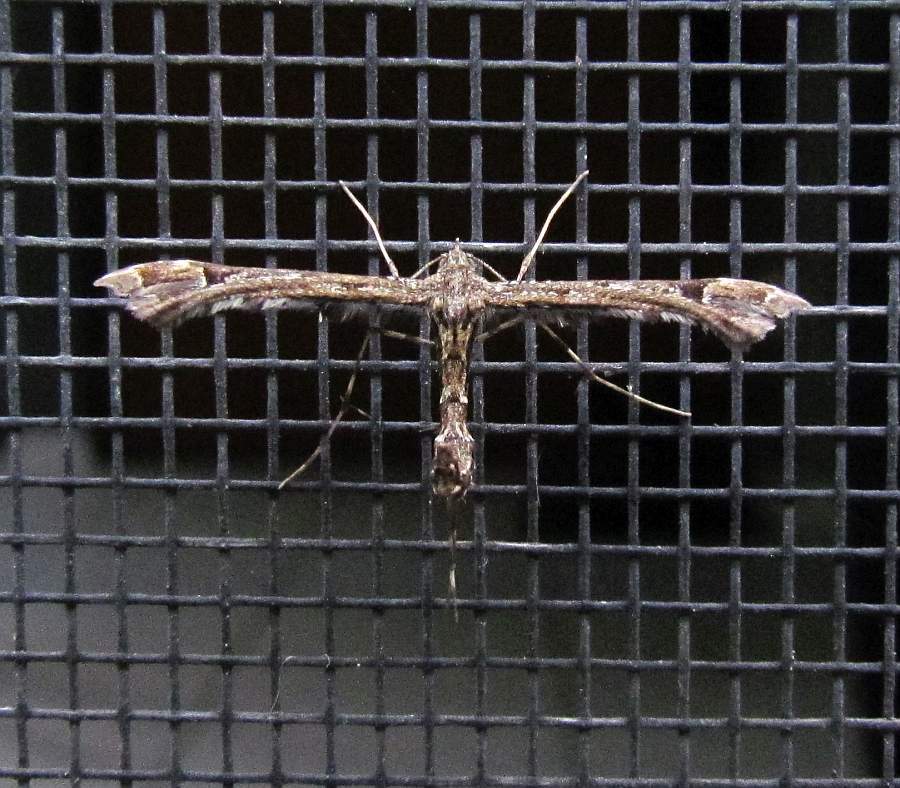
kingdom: Animalia
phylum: Arthropoda
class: Insecta
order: Lepidoptera
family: Pterophoridae
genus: Amblyptilia
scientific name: Amblyptilia pica
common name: Geranium plume moth
